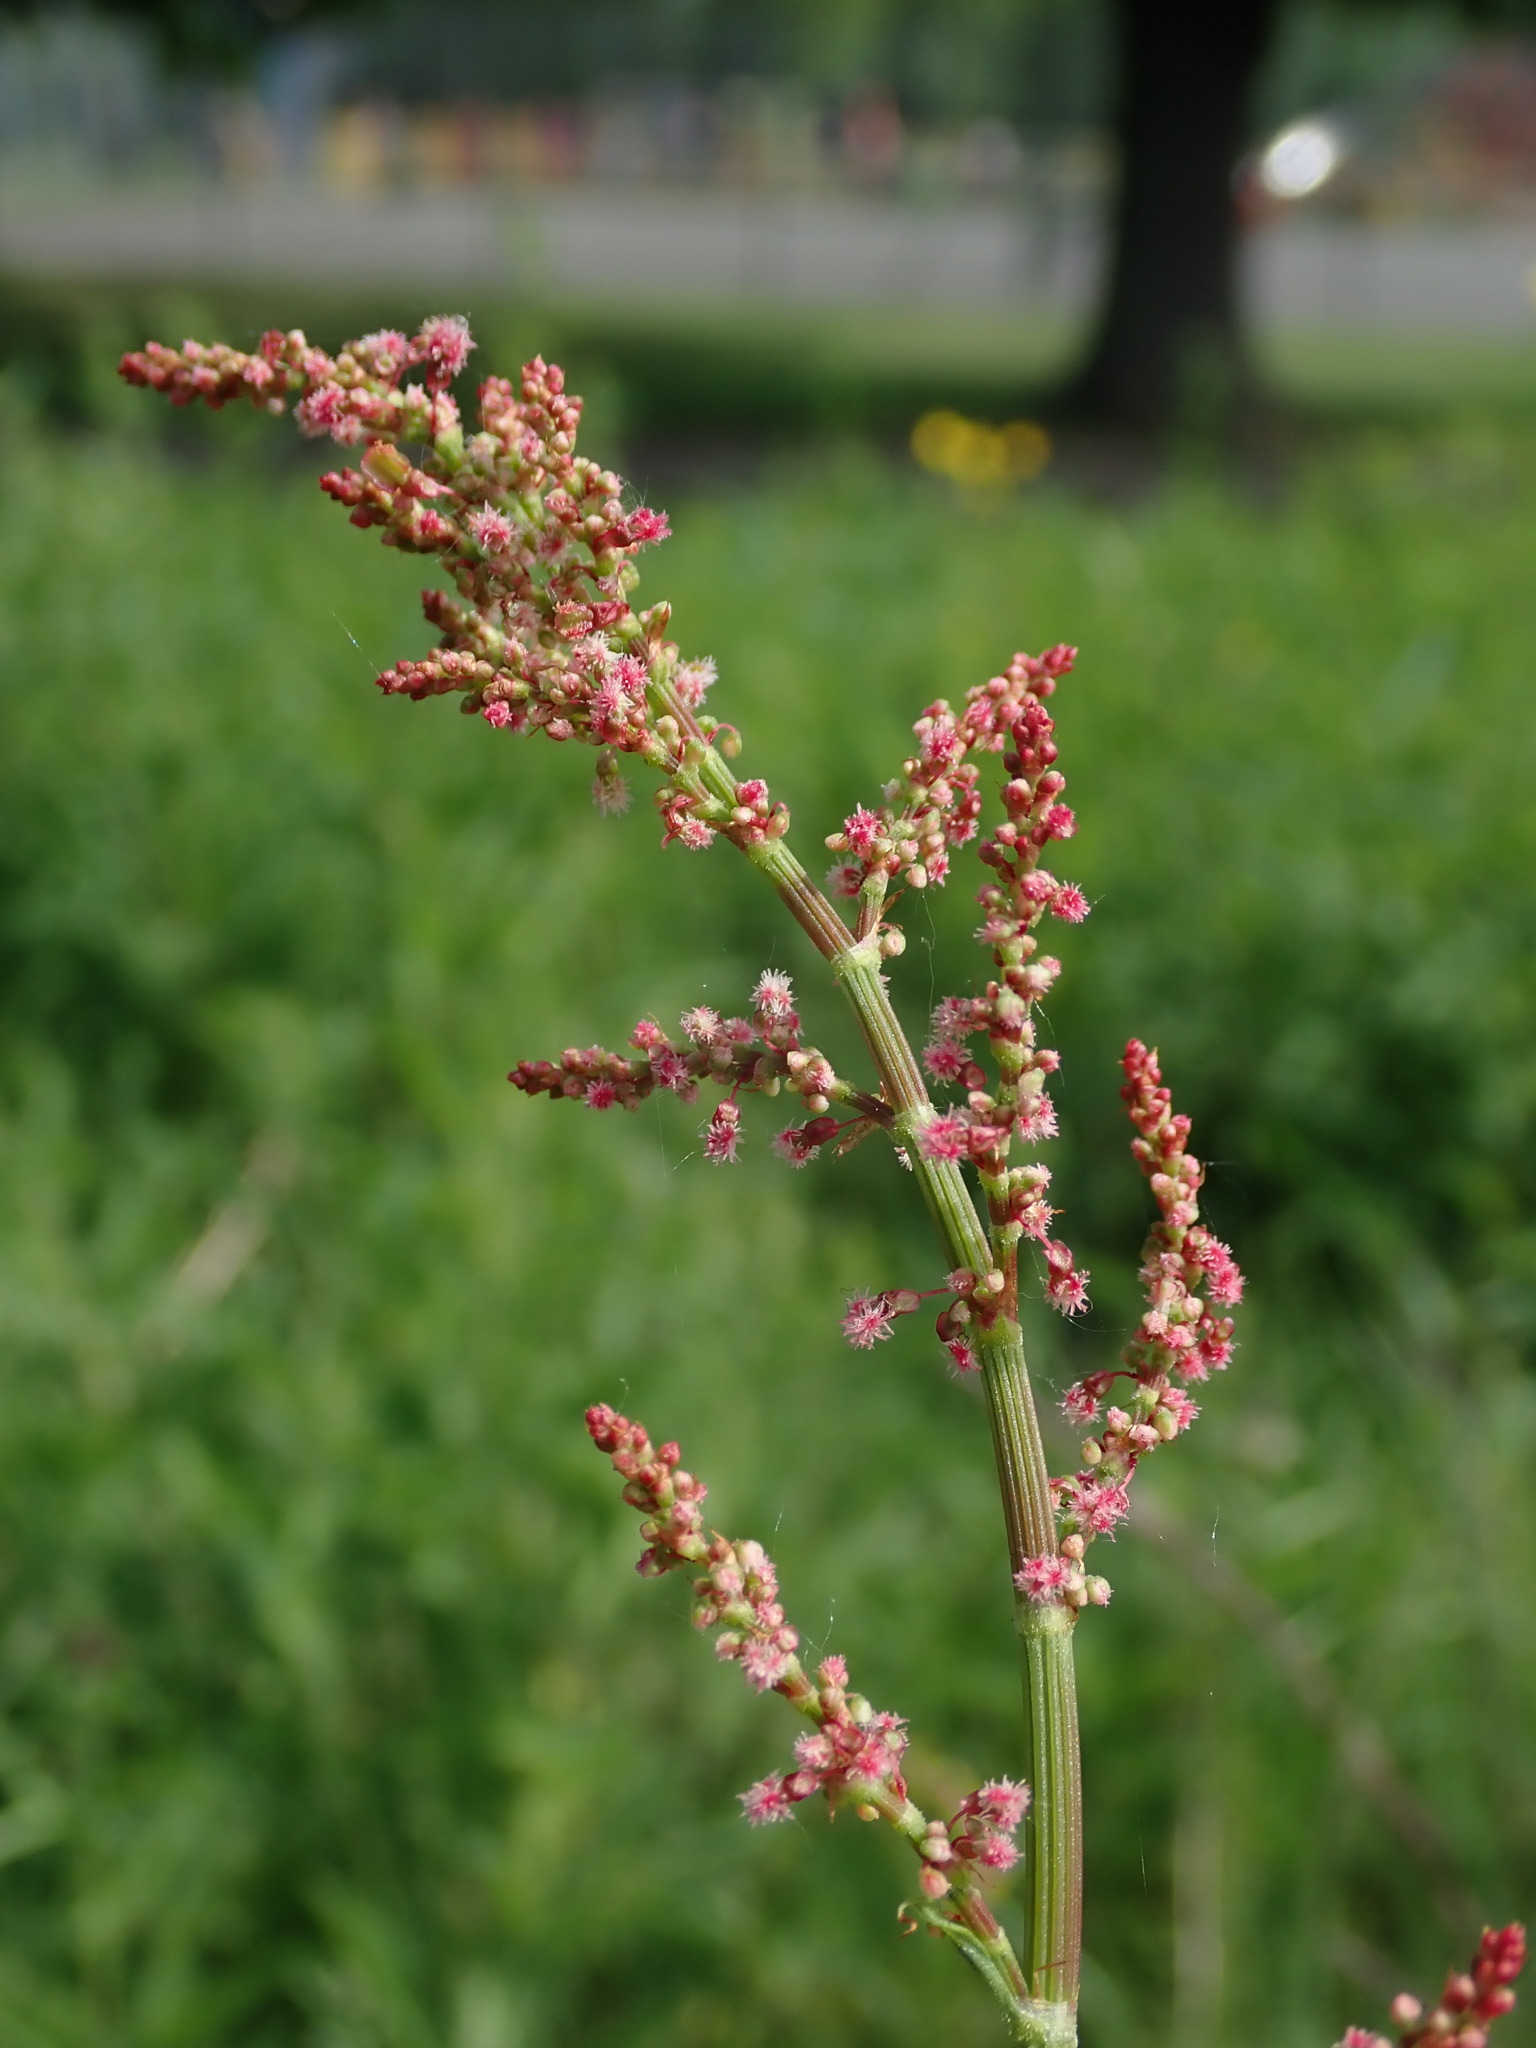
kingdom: Plantae
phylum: Tracheophyta
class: Magnoliopsida
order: Caryophyllales
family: Polygonaceae
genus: Rumex
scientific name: Rumex acetosa
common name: Garden sorrel
